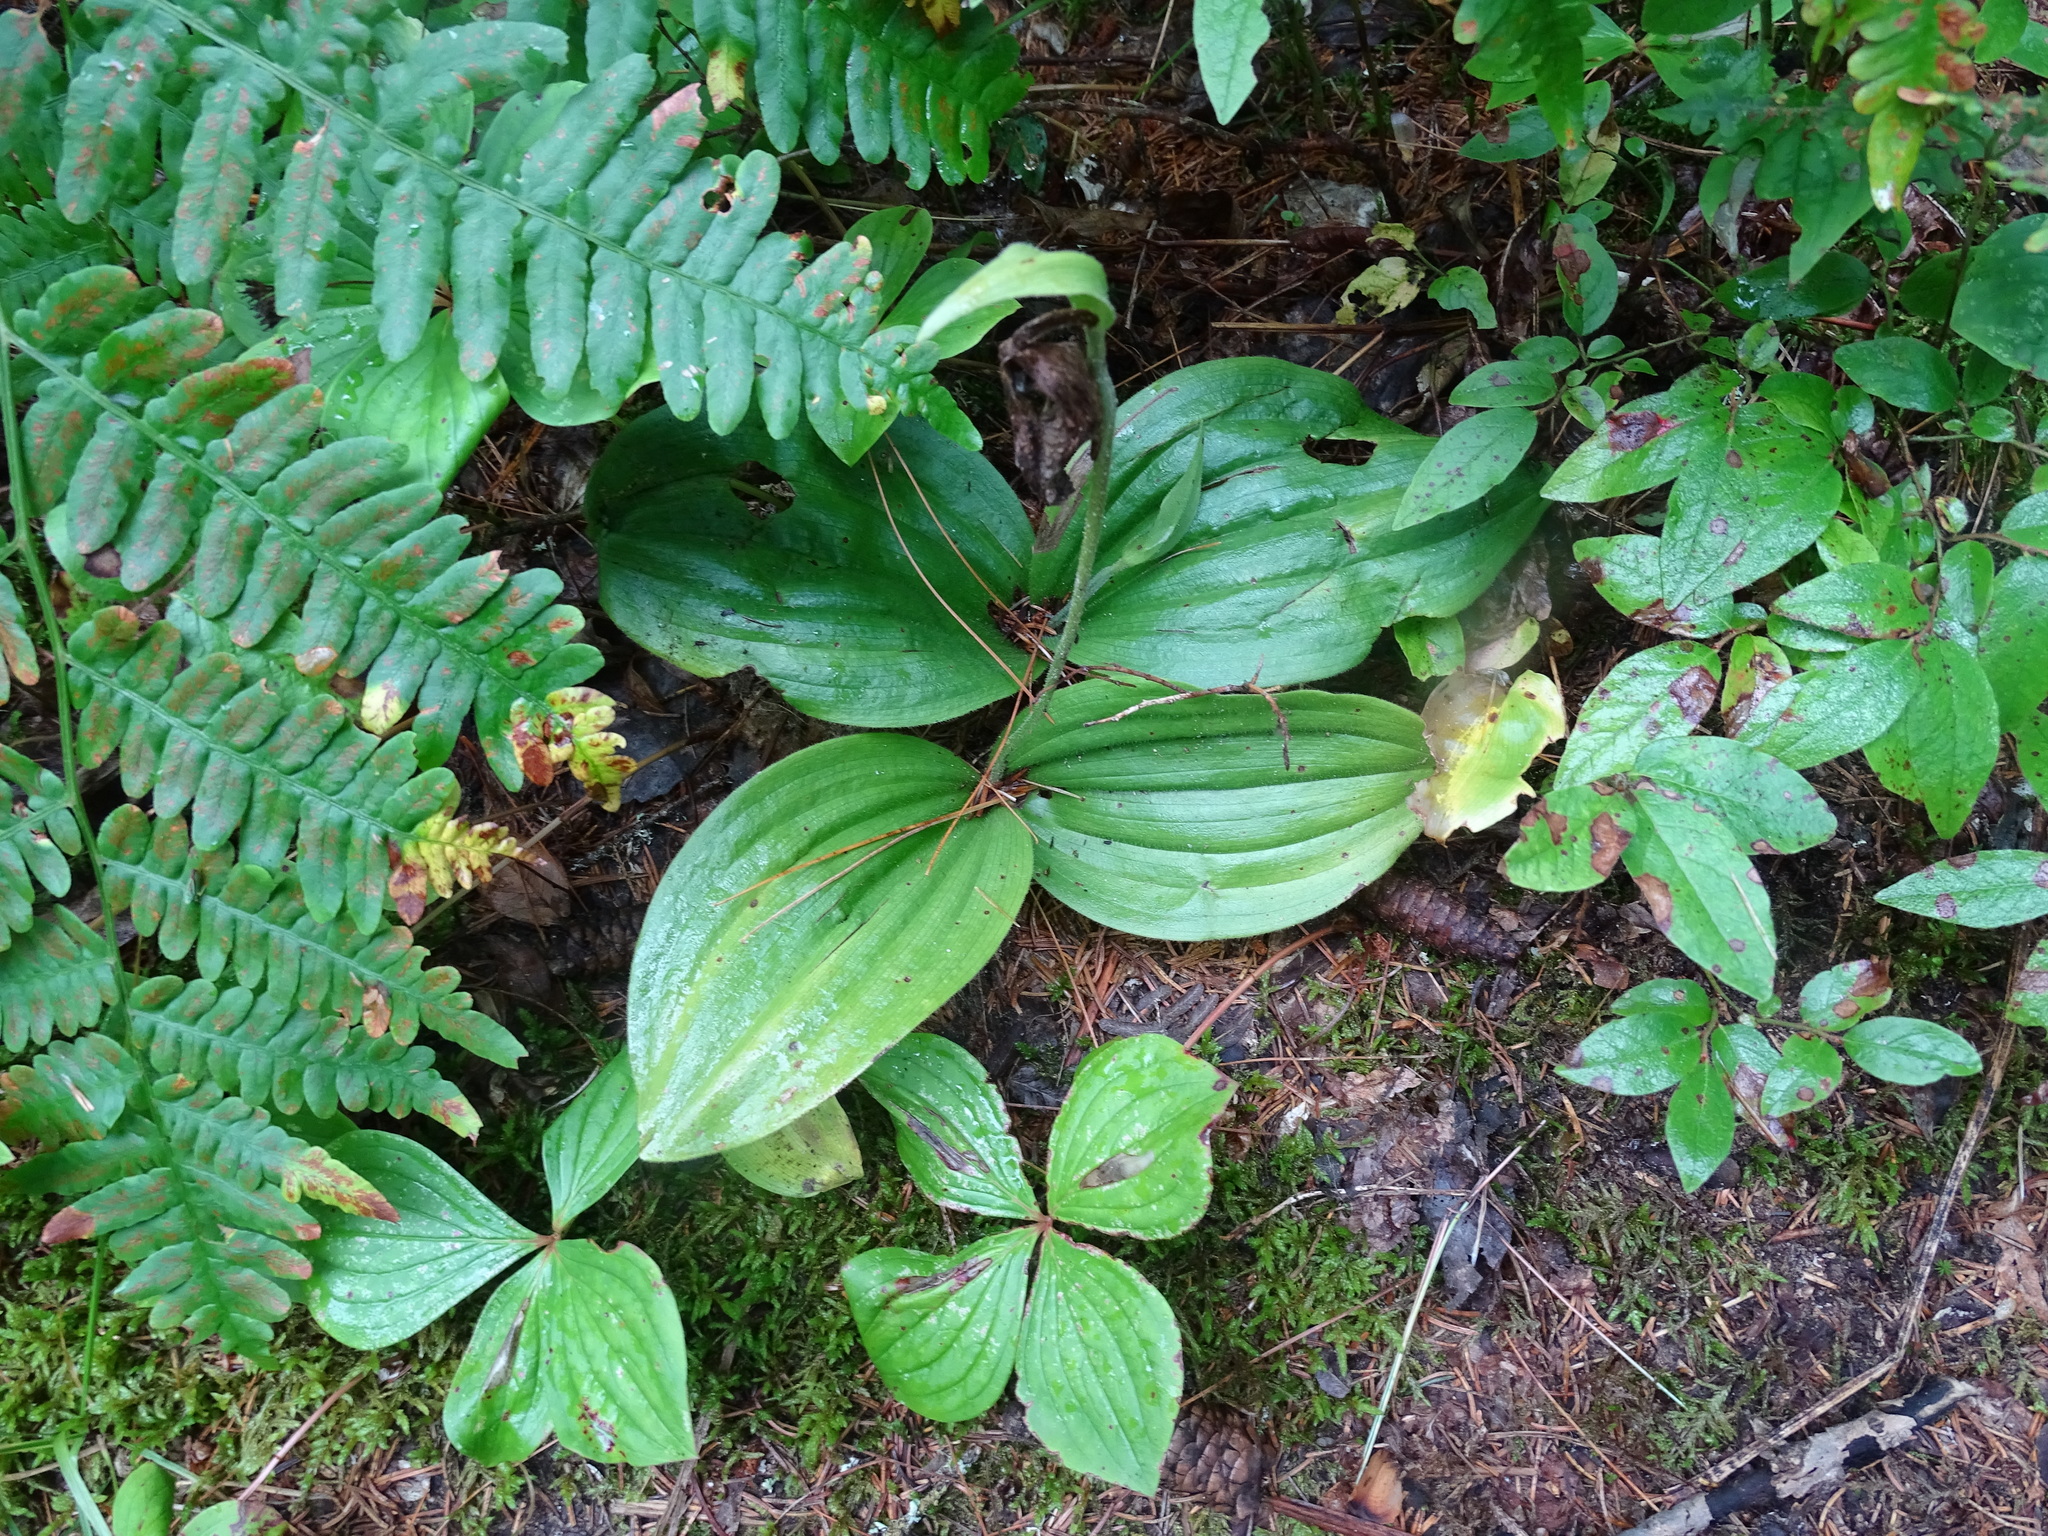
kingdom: Plantae
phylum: Tracheophyta
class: Liliopsida
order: Asparagales
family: Orchidaceae
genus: Cypripedium
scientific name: Cypripedium acaule
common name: Pink lady's-slipper
